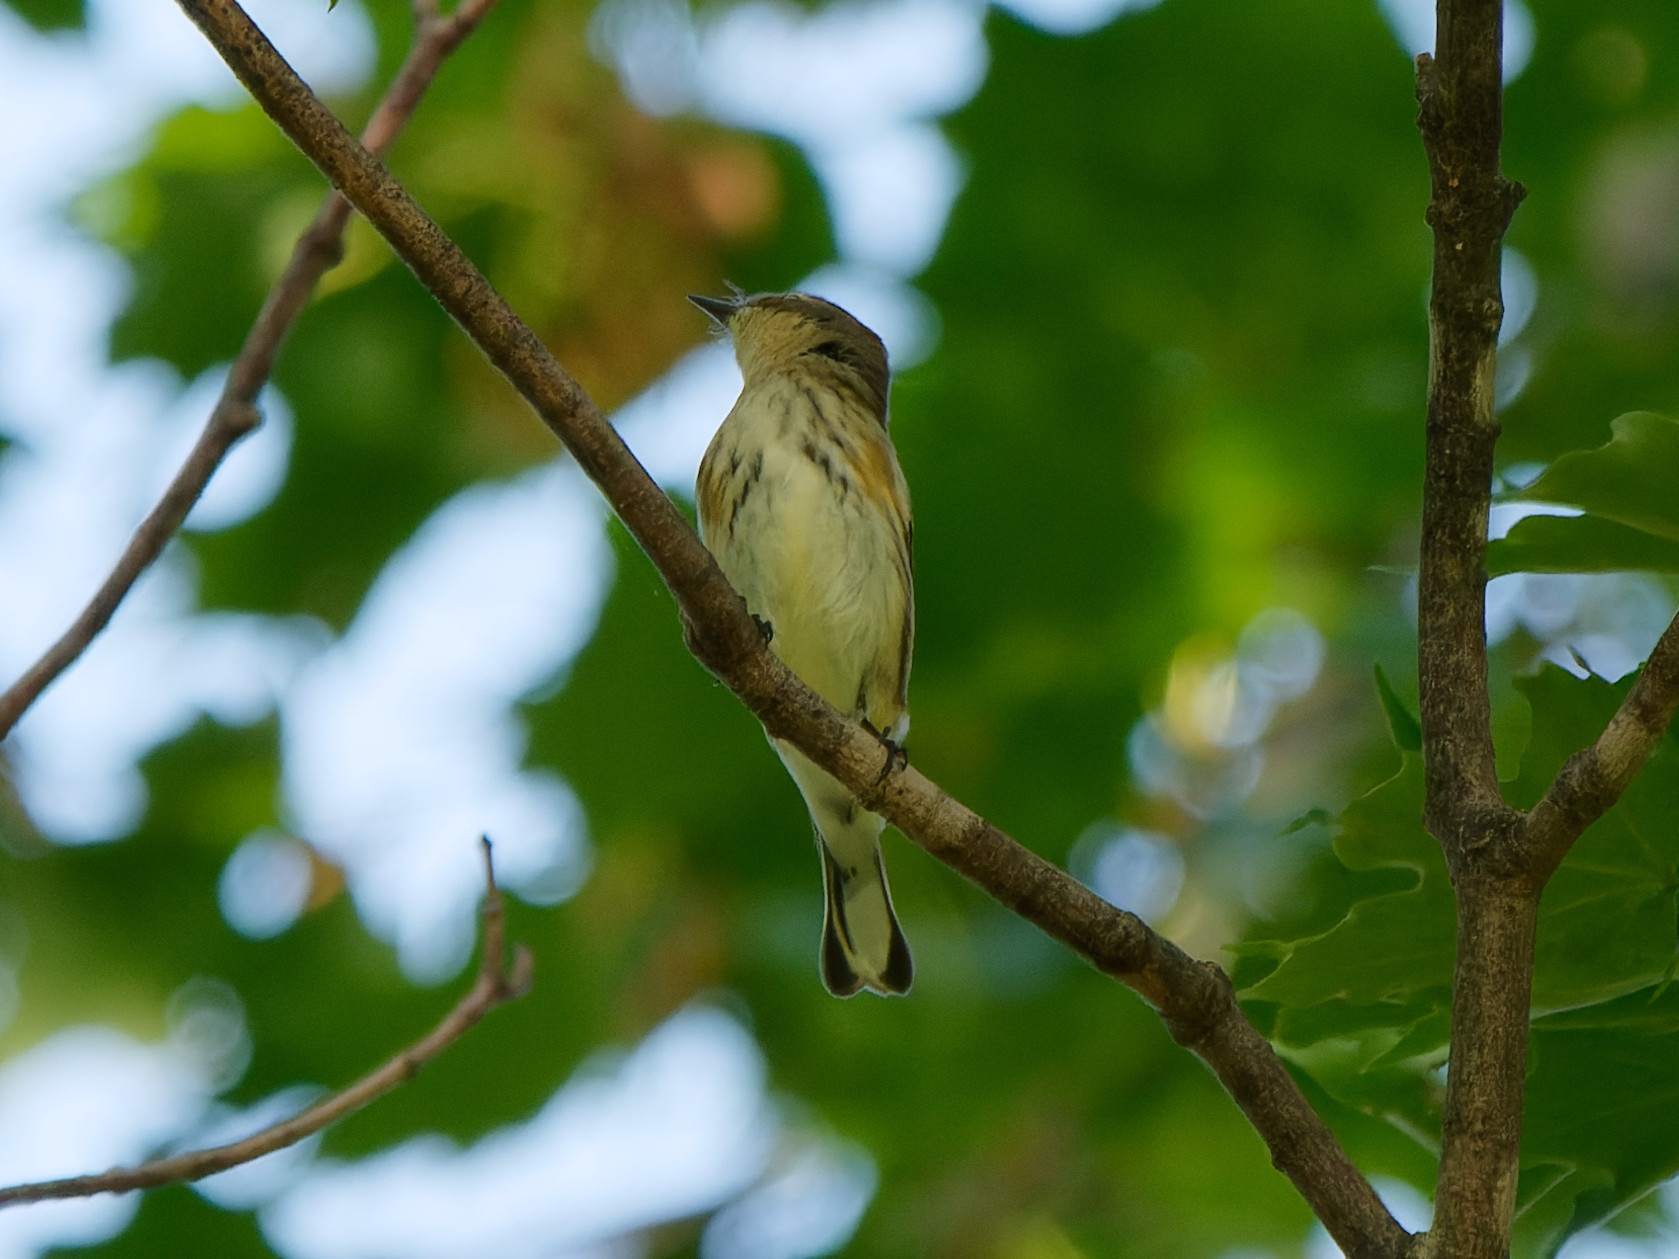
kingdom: Animalia
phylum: Chordata
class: Aves
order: Passeriformes
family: Parulidae
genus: Setophaga
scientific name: Setophaga coronata
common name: Myrtle warbler
